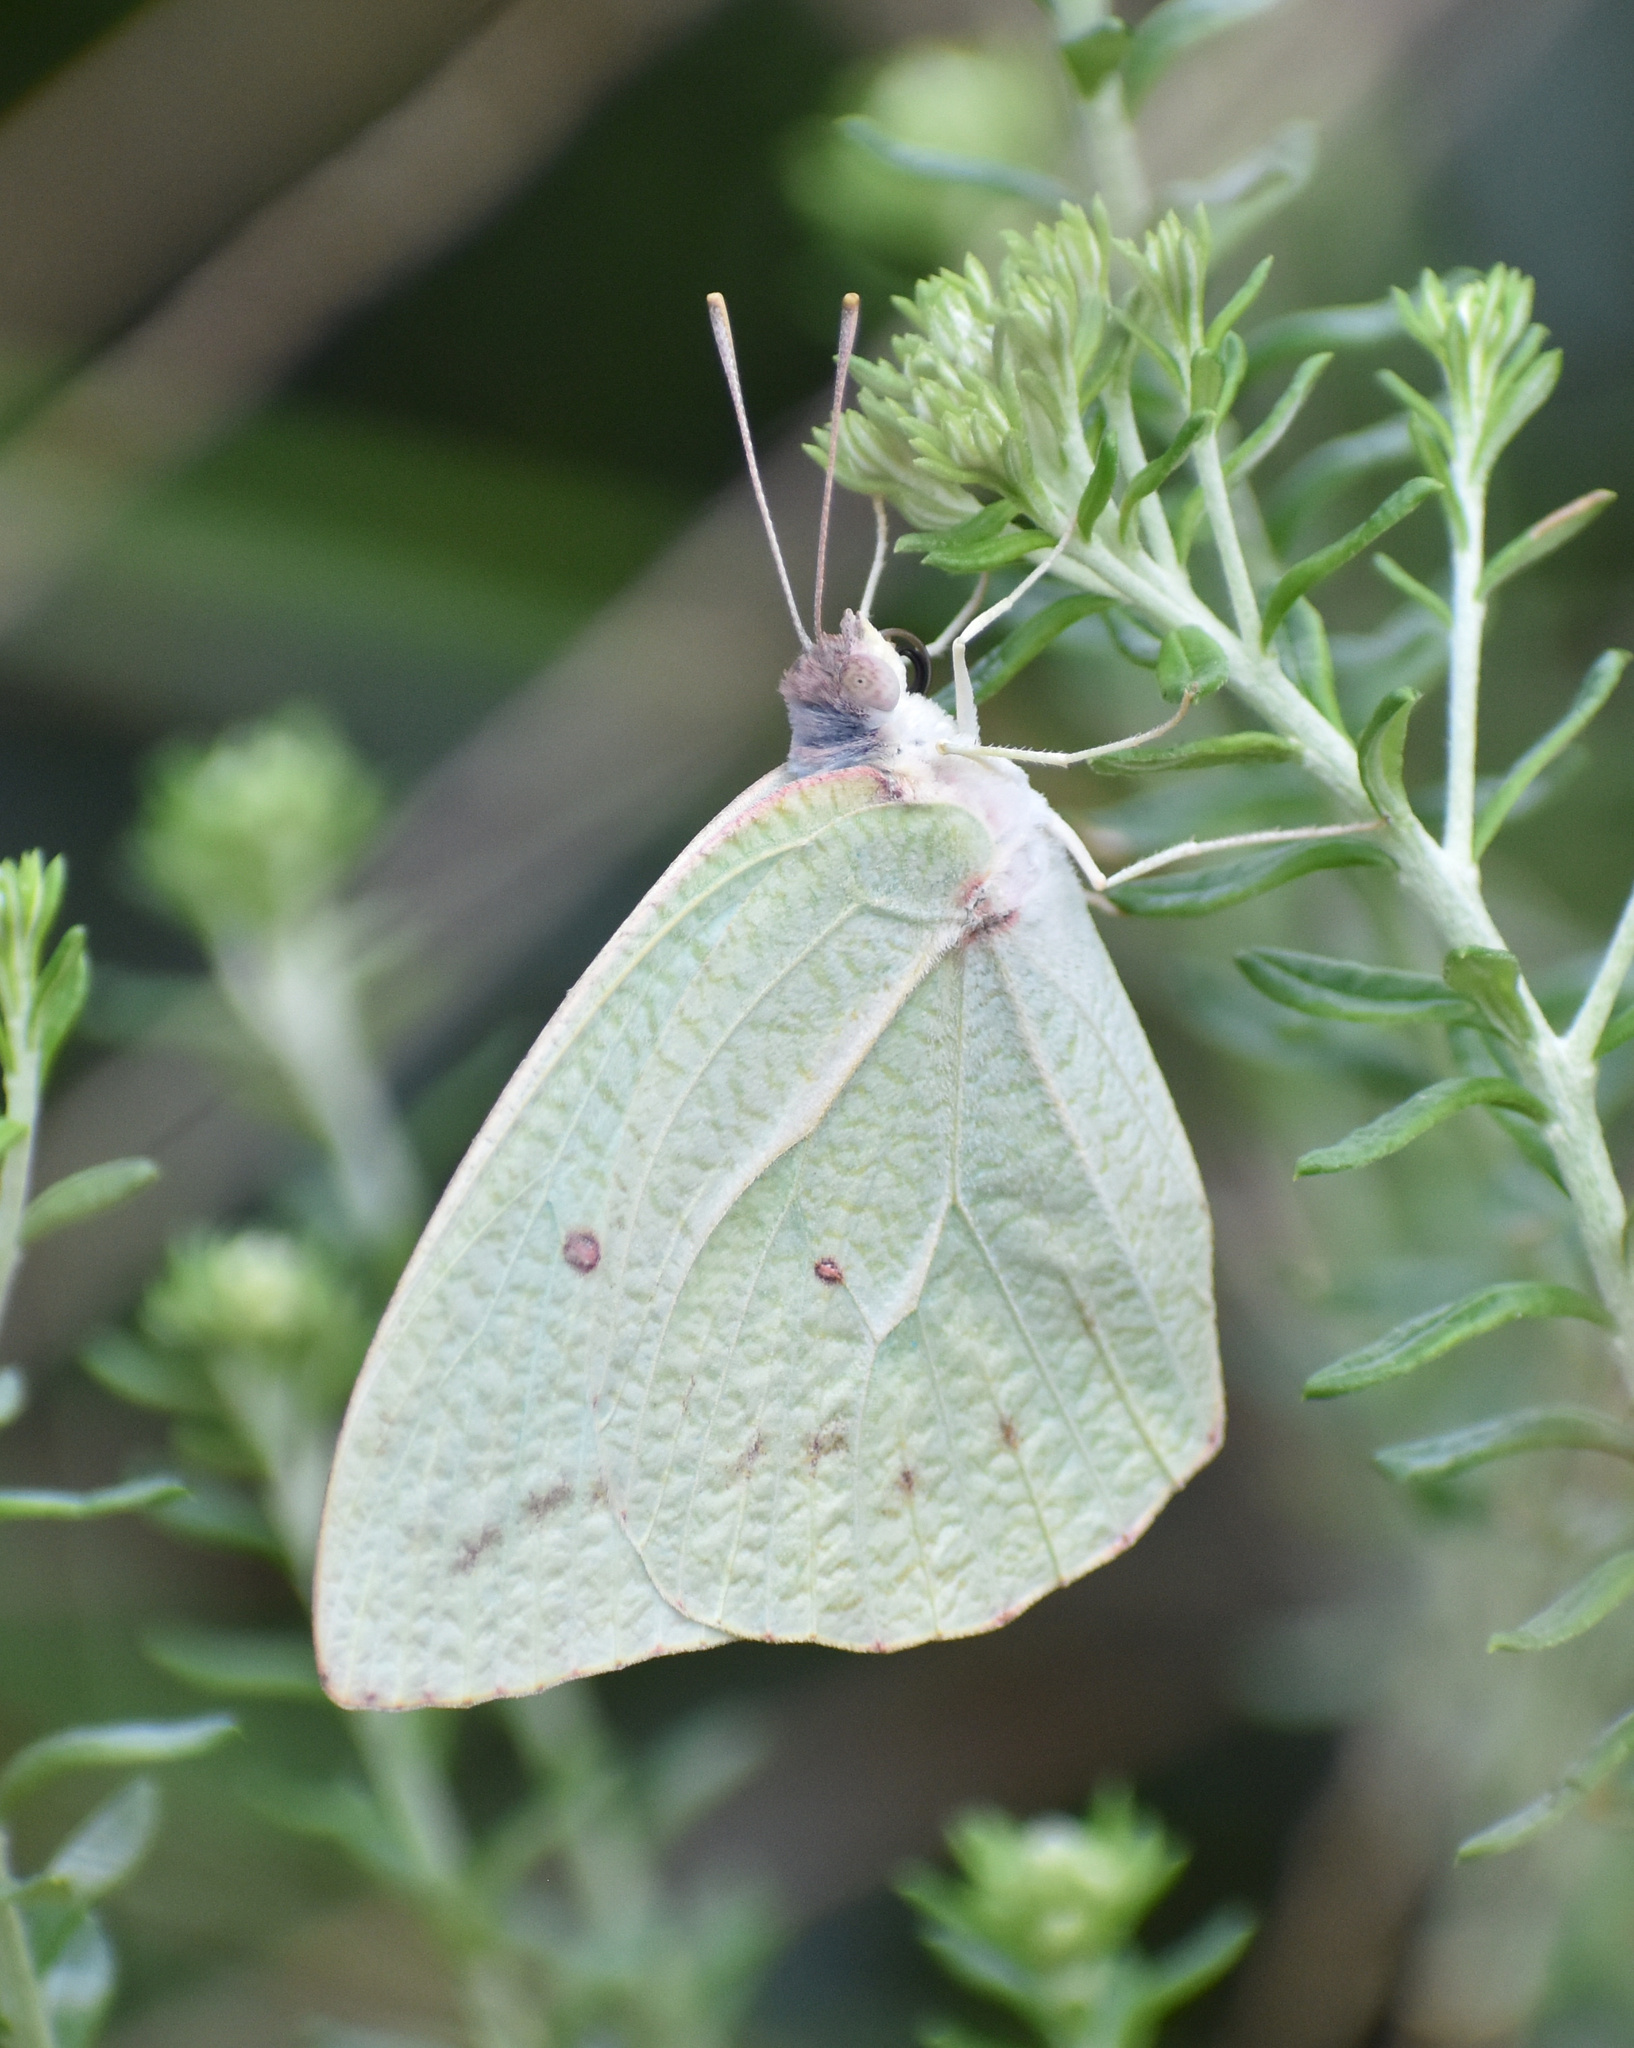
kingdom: Animalia
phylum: Arthropoda
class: Insecta
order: Lepidoptera
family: Pieridae
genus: Catopsilia
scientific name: Catopsilia florella
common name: African migrant
